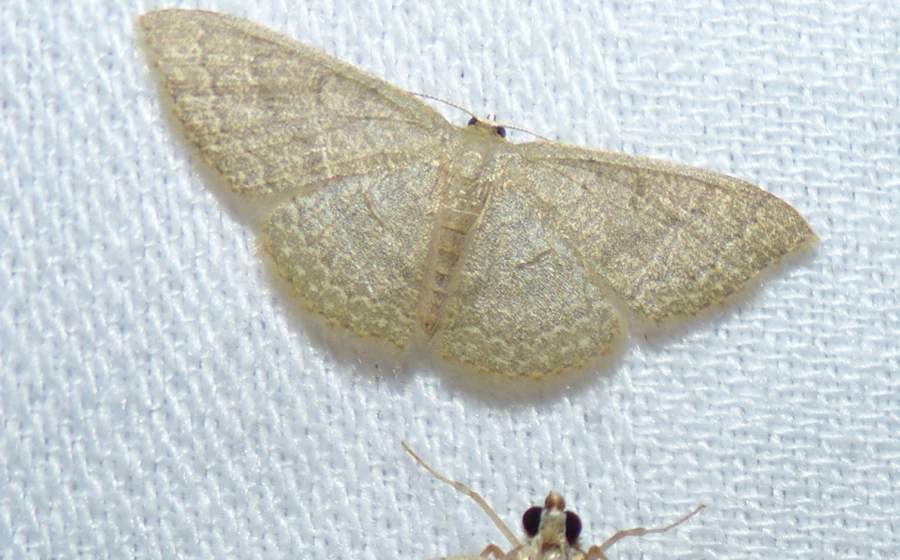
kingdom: Animalia
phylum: Arthropoda
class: Insecta
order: Lepidoptera
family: Geometridae
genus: Pleuroprucha
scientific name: Pleuroprucha insulsaria
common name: Common tan wave
